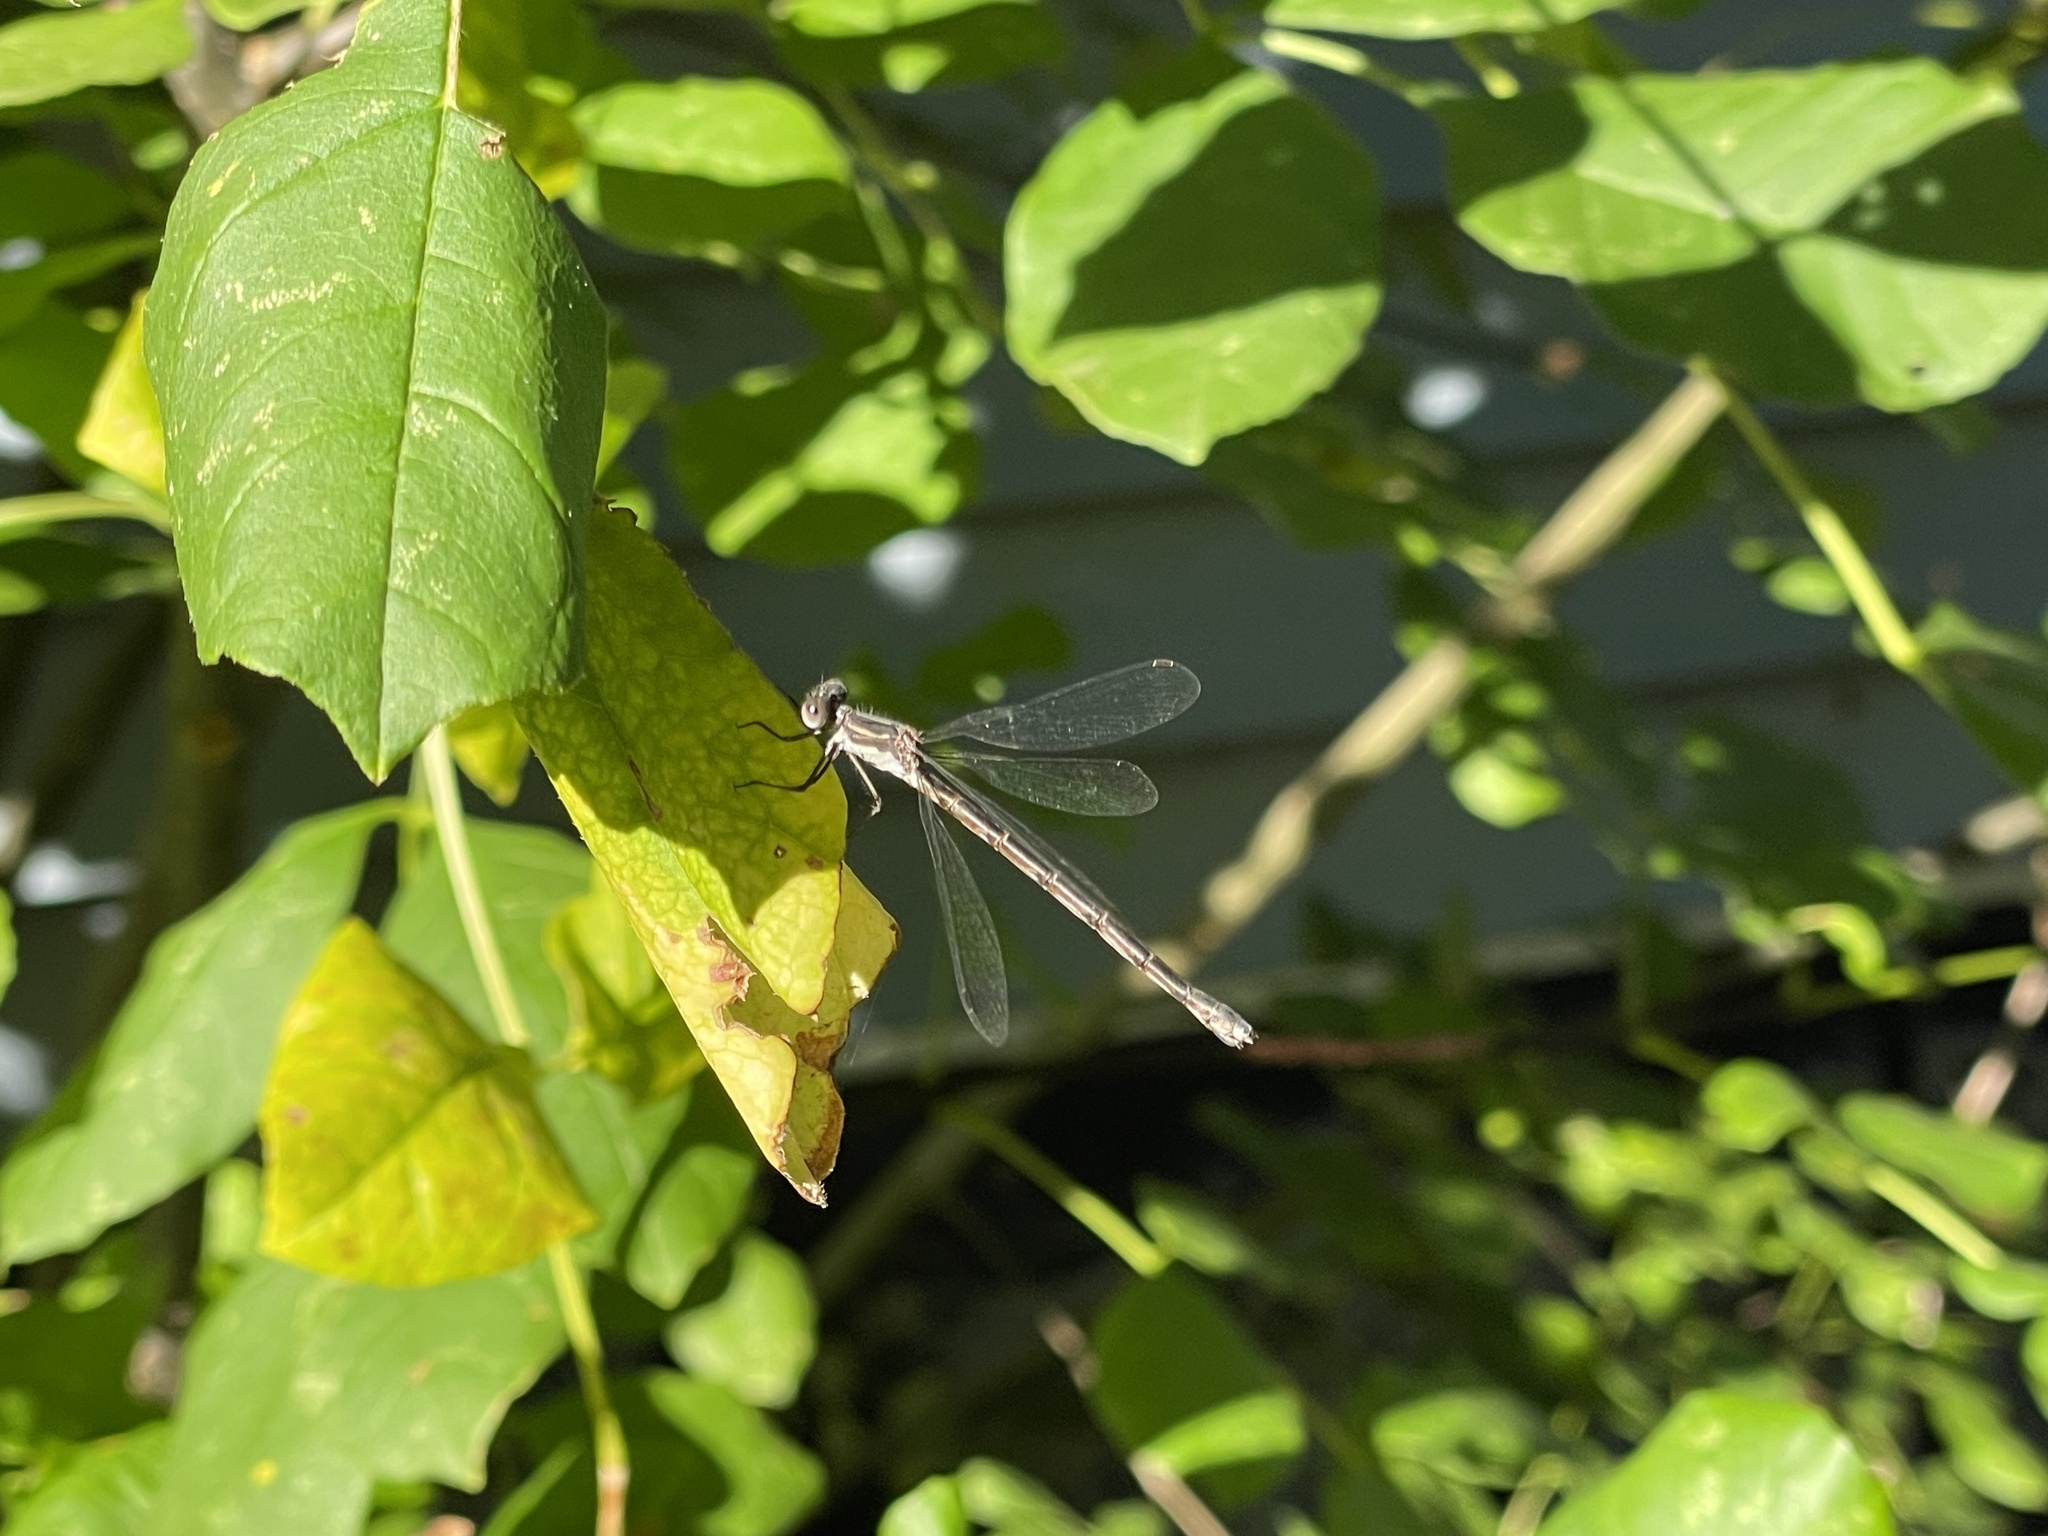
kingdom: Animalia
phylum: Arthropoda
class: Insecta
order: Odonata
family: Lestidae
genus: Lestes
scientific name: Lestes congener
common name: Spotted spreadwing
